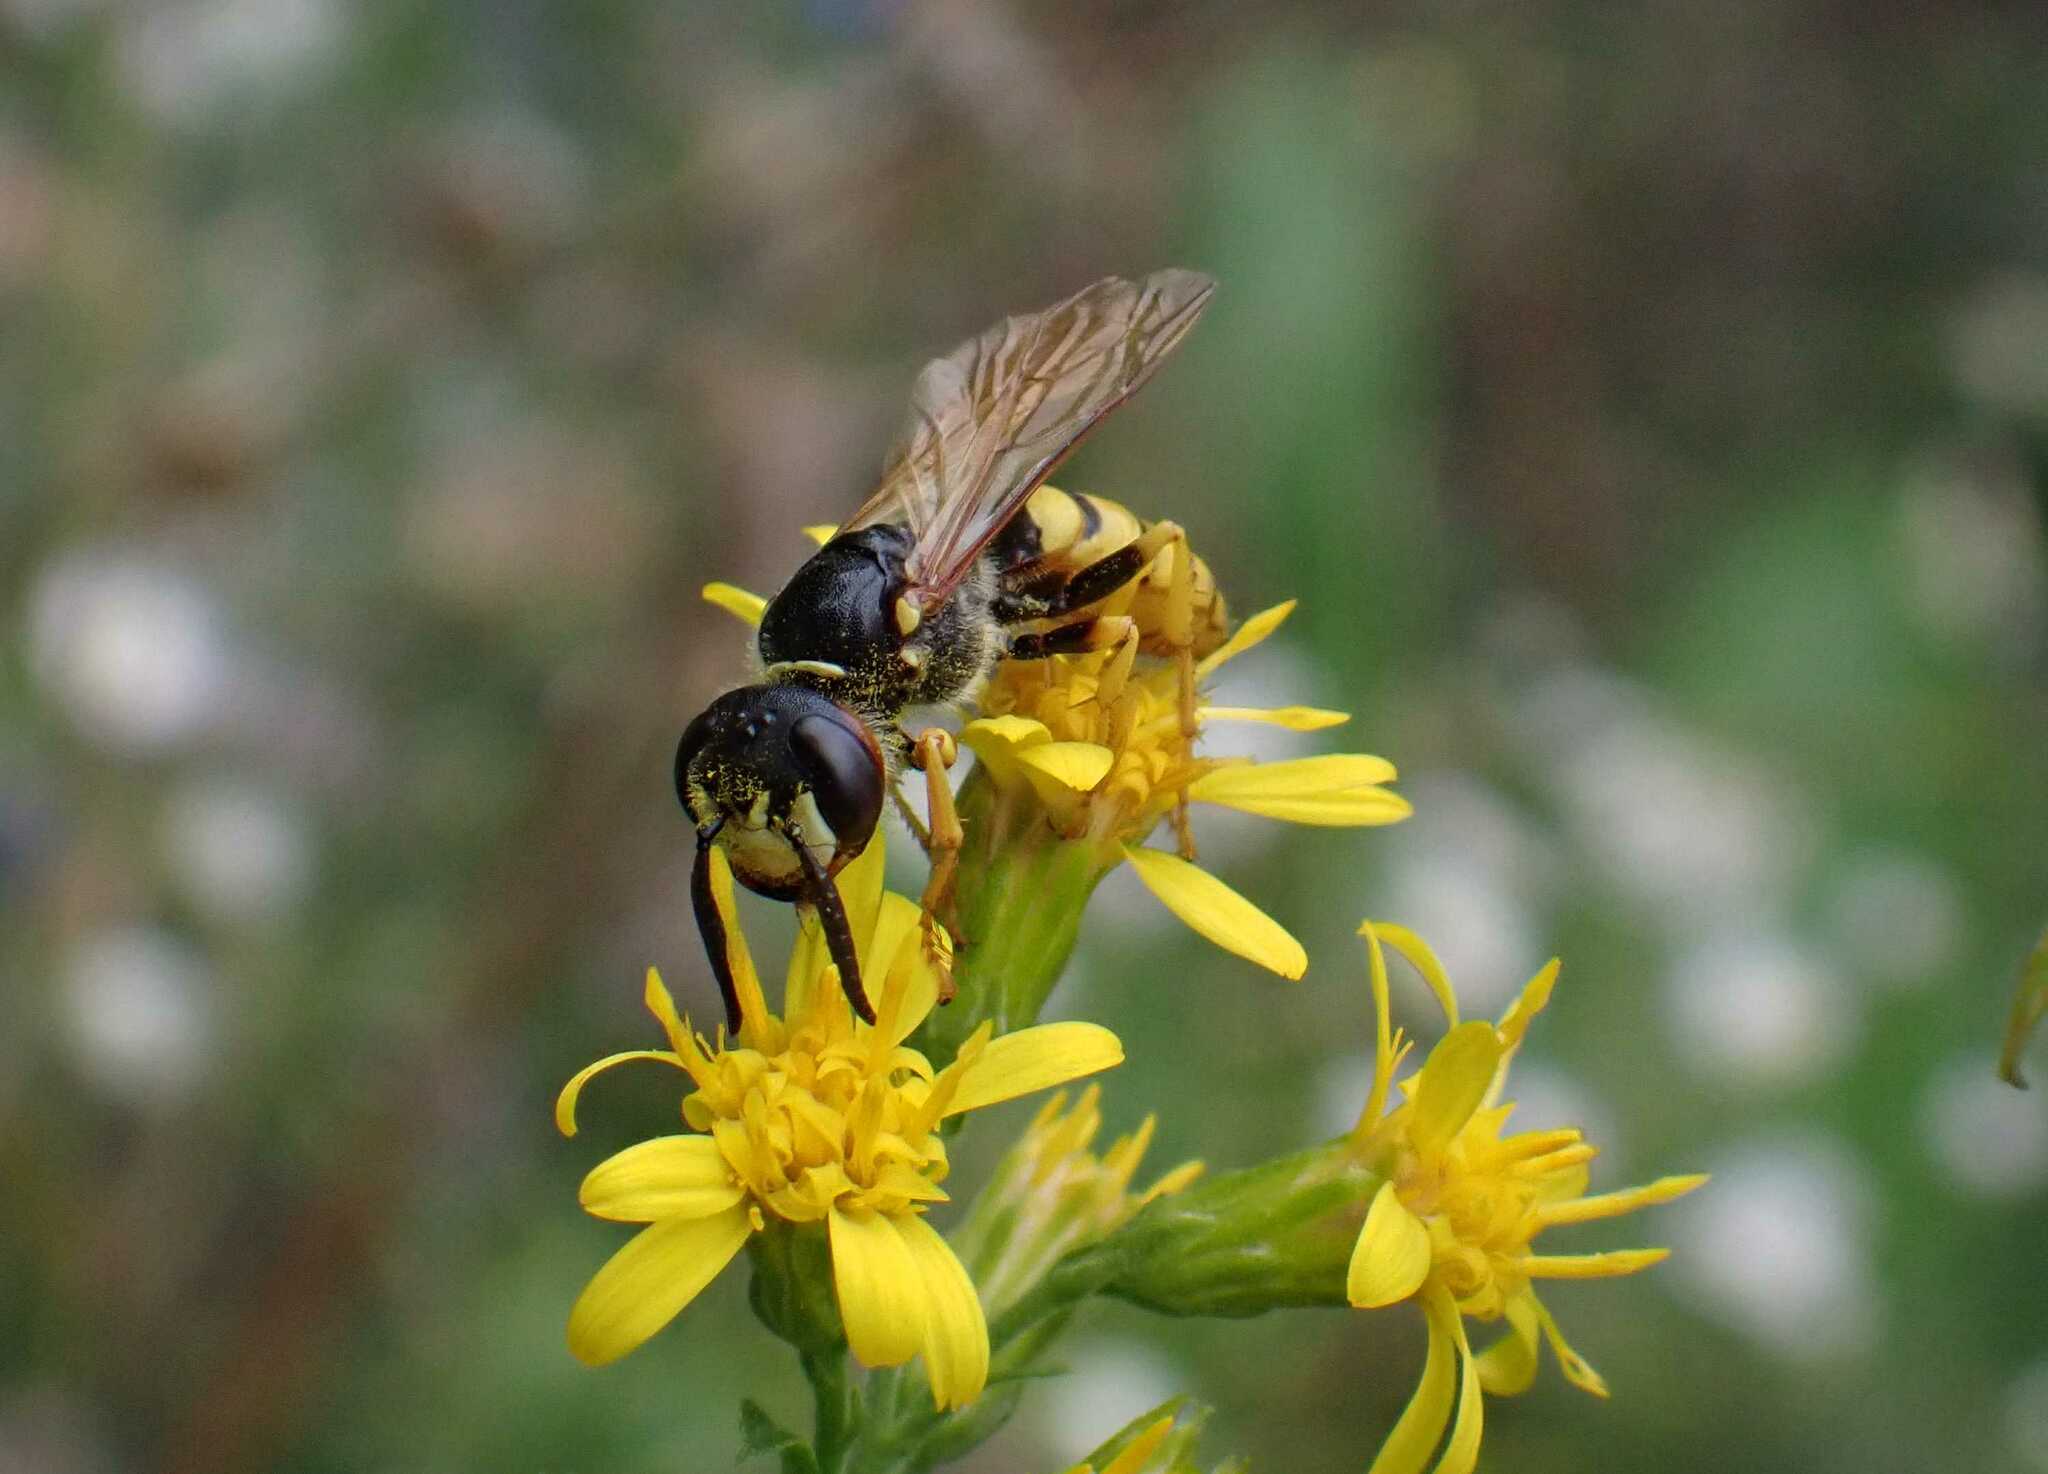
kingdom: Animalia
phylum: Arthropoda
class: Insecta
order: Hymenoptera
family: Crabronidae
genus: Philanthus
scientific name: Philanthus triangulum
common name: Bee wolf
